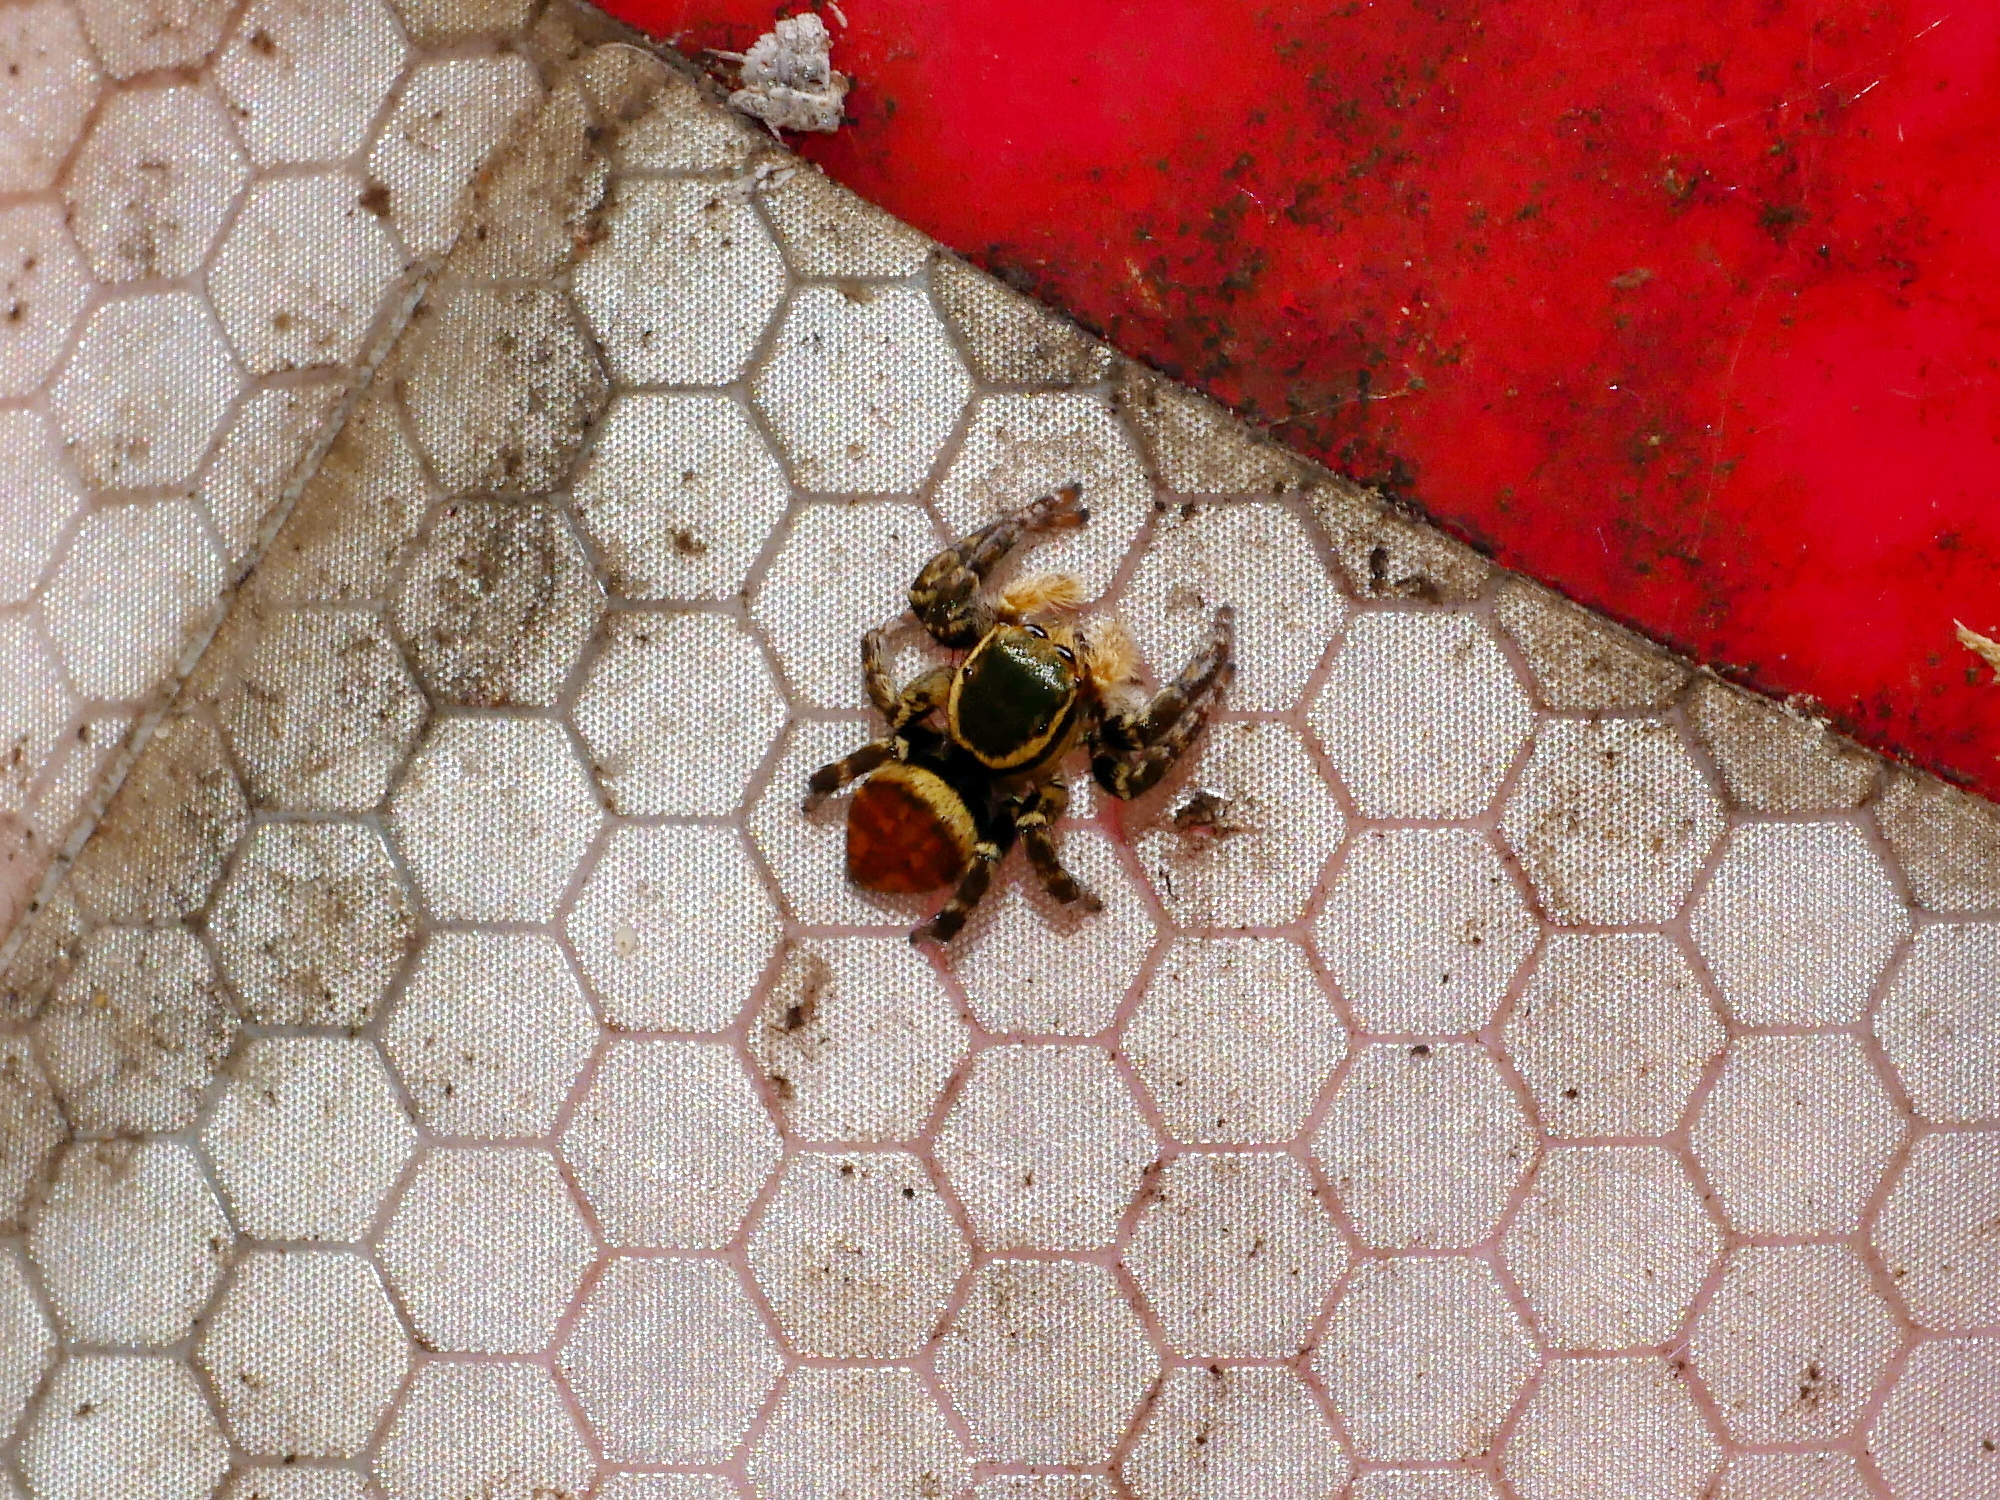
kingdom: Animalia
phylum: Arthropoda
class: Arachnida
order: Araneae
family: Salticidae
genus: Carrhotus
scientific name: Carrhotus xanthogramma
